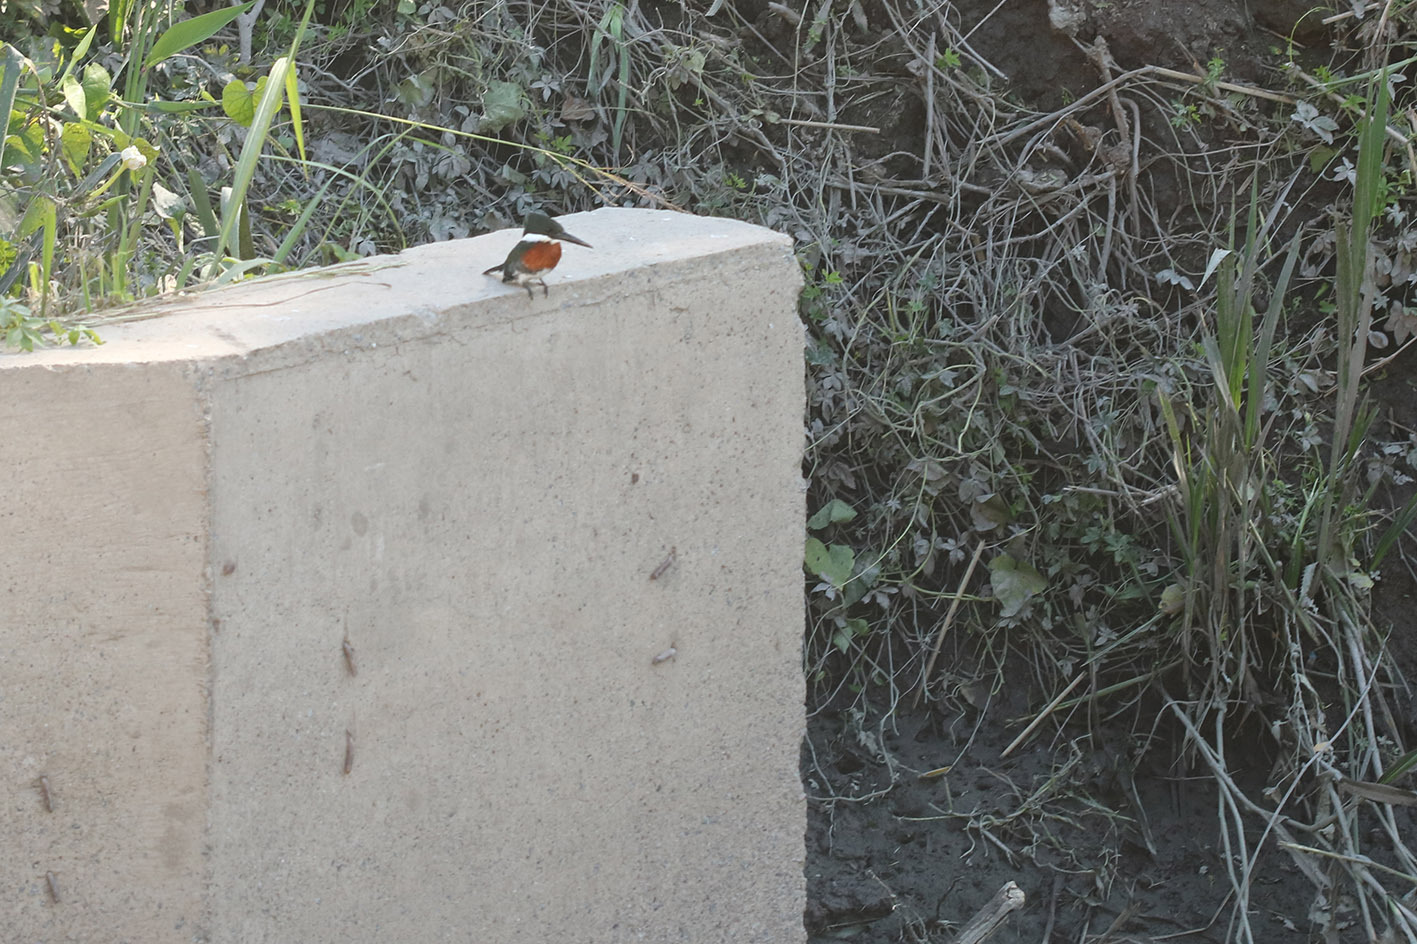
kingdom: Animalia
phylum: Chordata
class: Aves
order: Coraciiformes
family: Alcedinidae
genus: Chloroceryle
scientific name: Chloroceryle americana
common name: Green kingfisher
